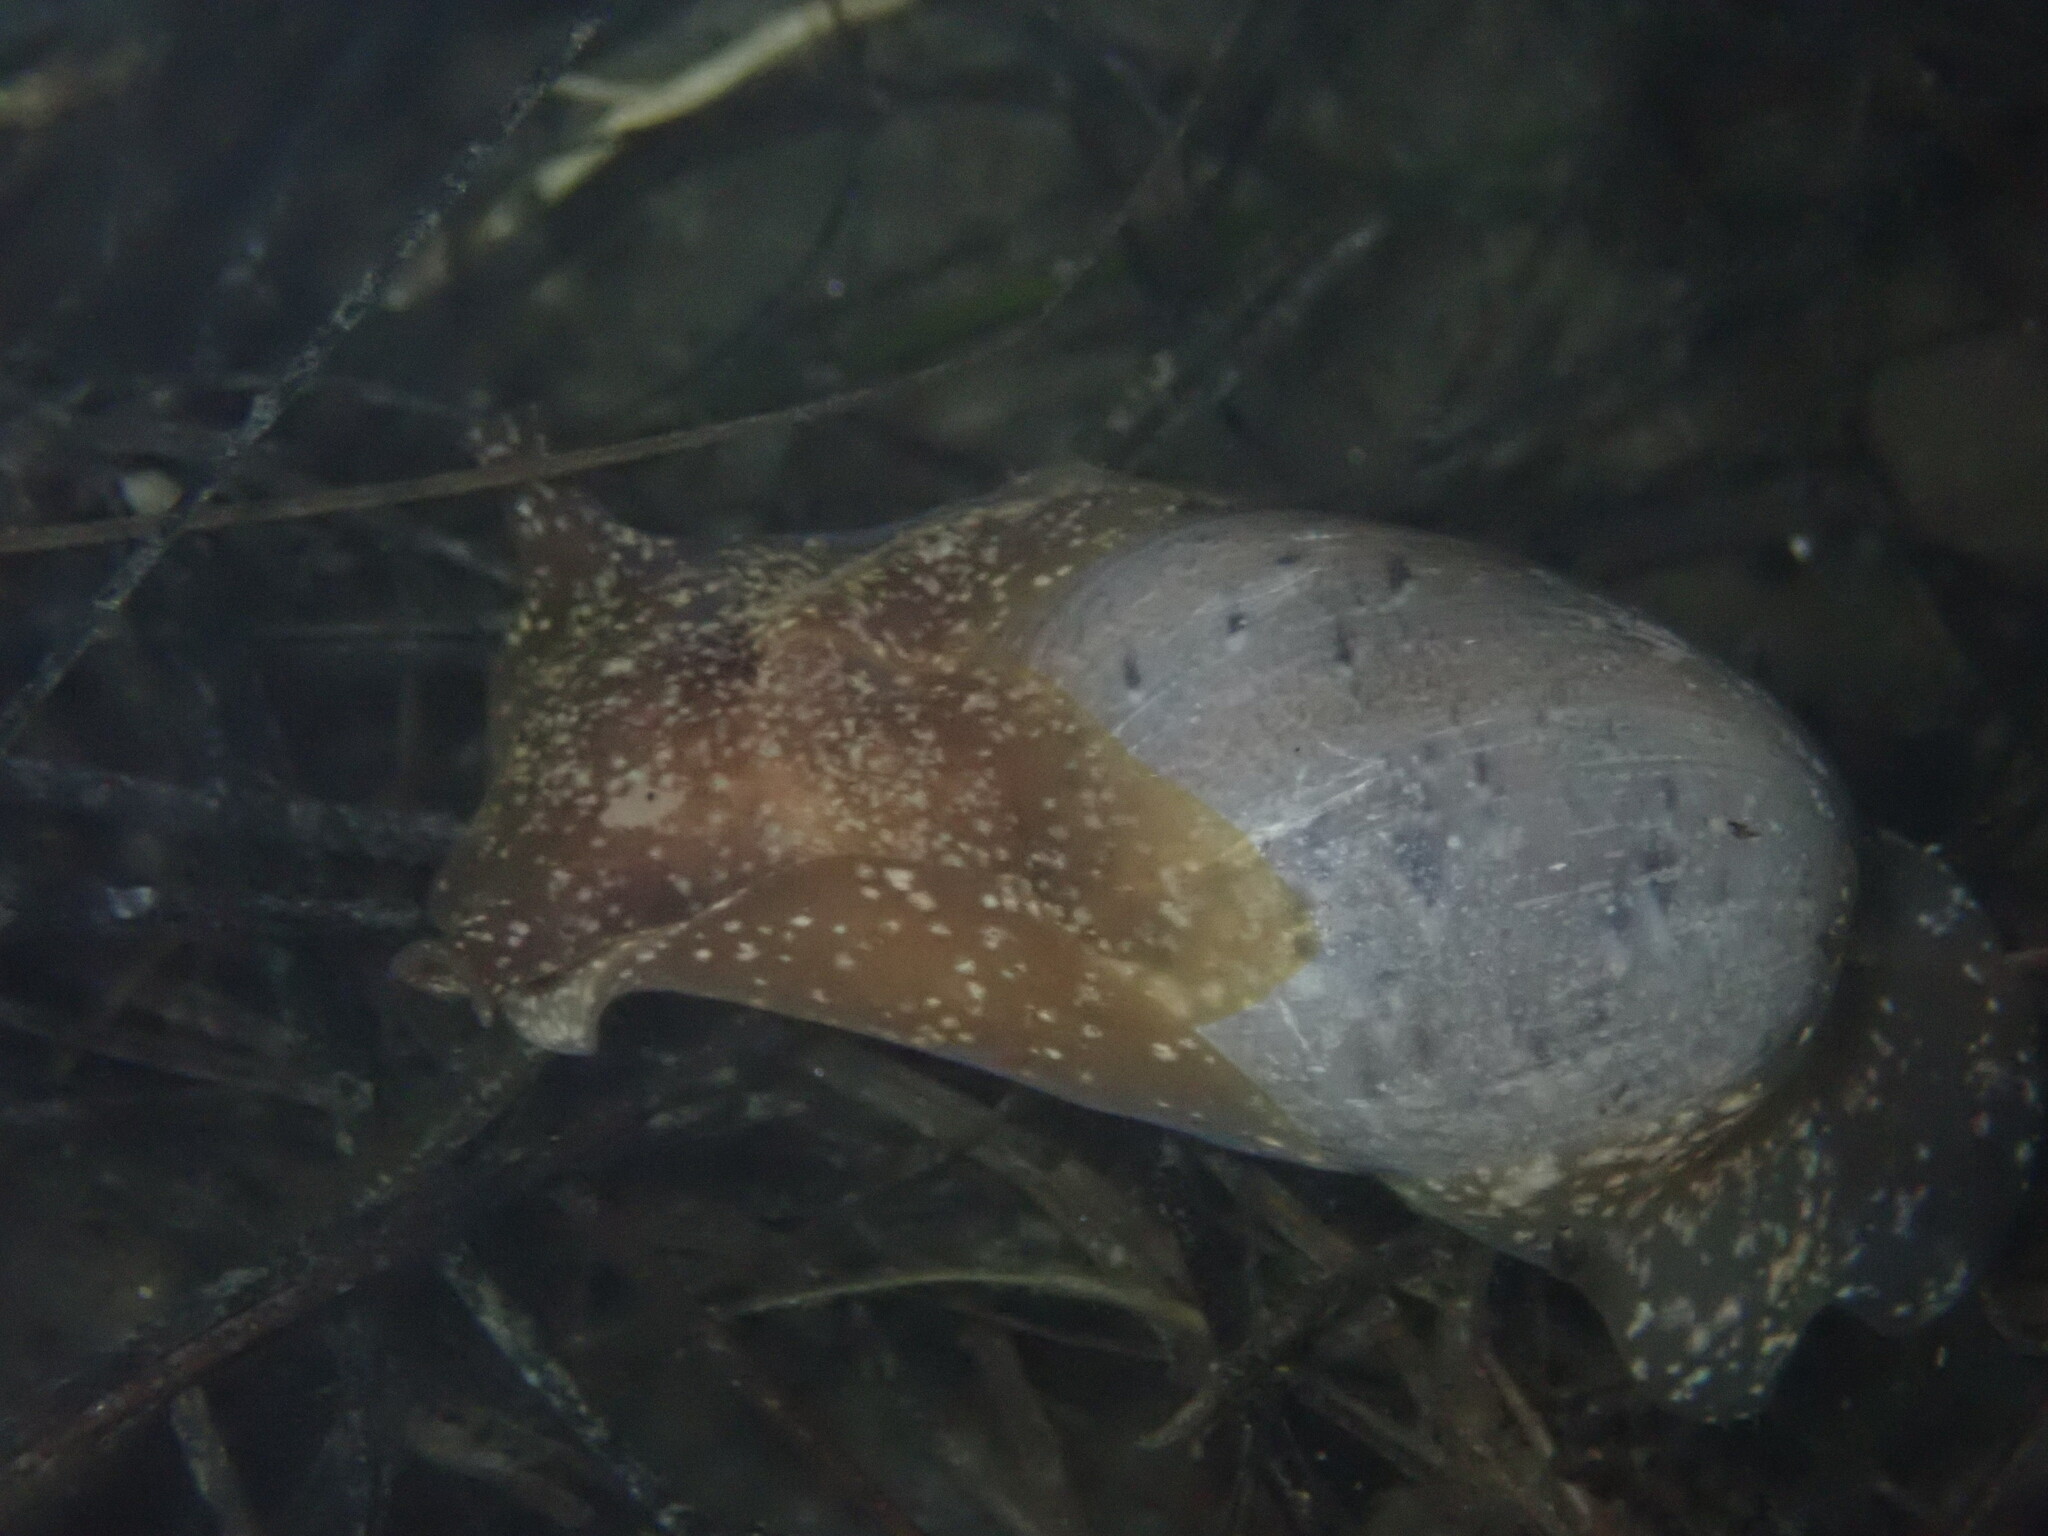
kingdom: Animalia
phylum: Mollusca
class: Gastropoda
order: Cephalaspidea
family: Bullidae
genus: Bulla
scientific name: Bulla gouldiana
